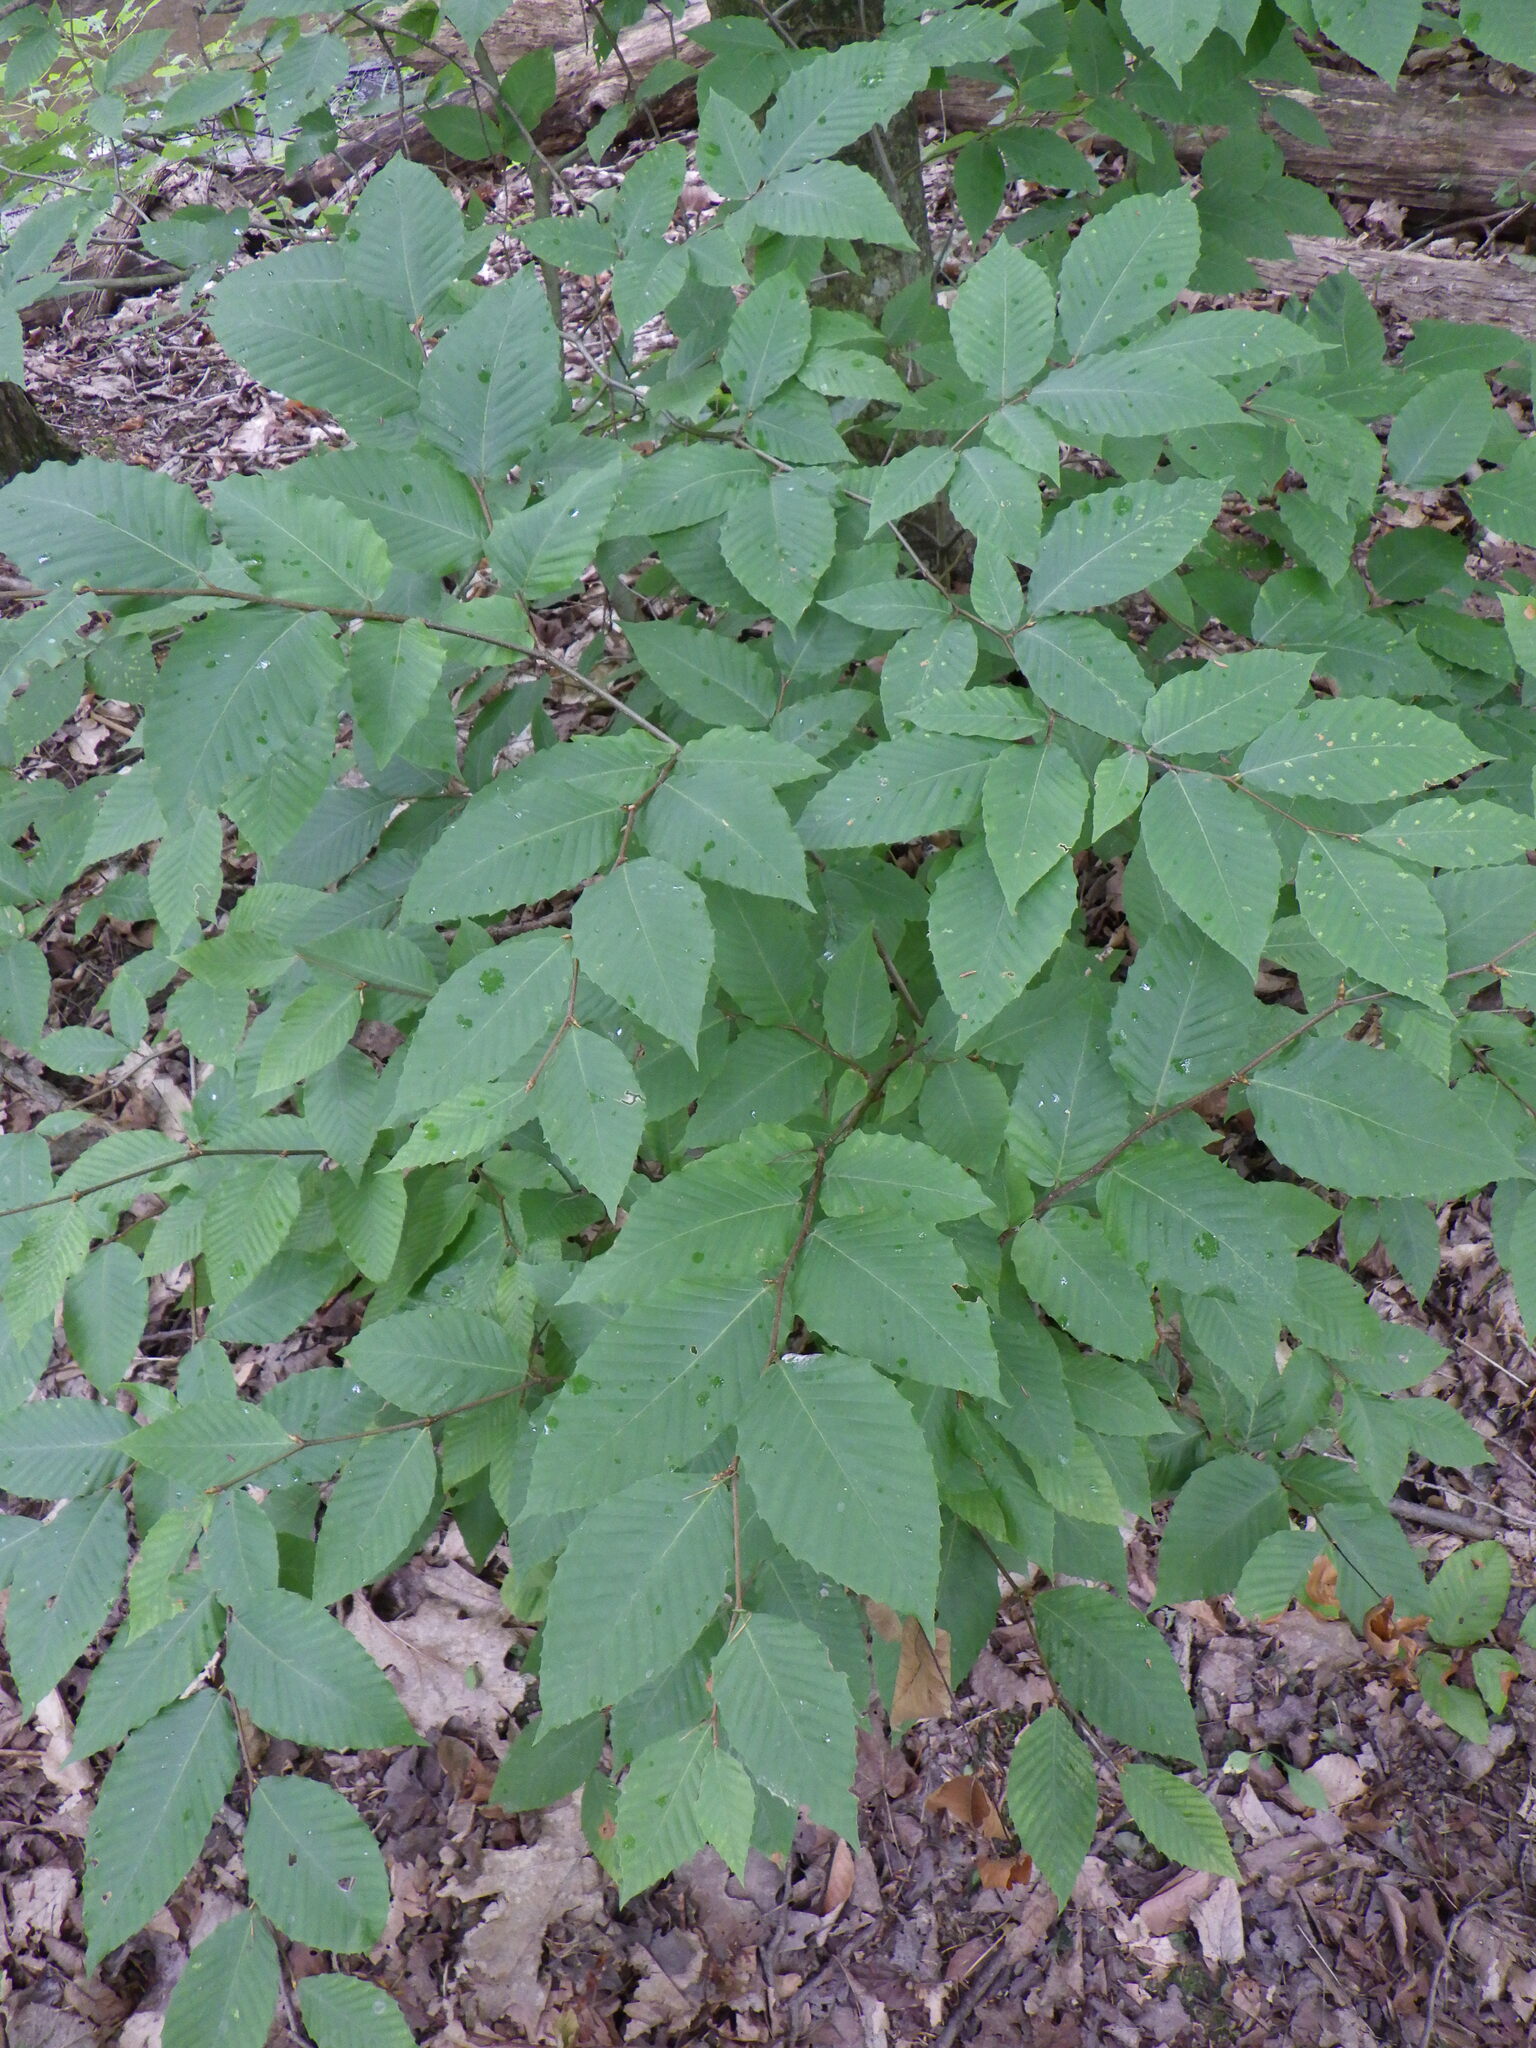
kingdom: Plantae
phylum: Tracheophyta
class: Magnoliopsida
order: Fagales
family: Fagaceae
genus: Fagus
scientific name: Fagus grandifolia
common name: American beech
